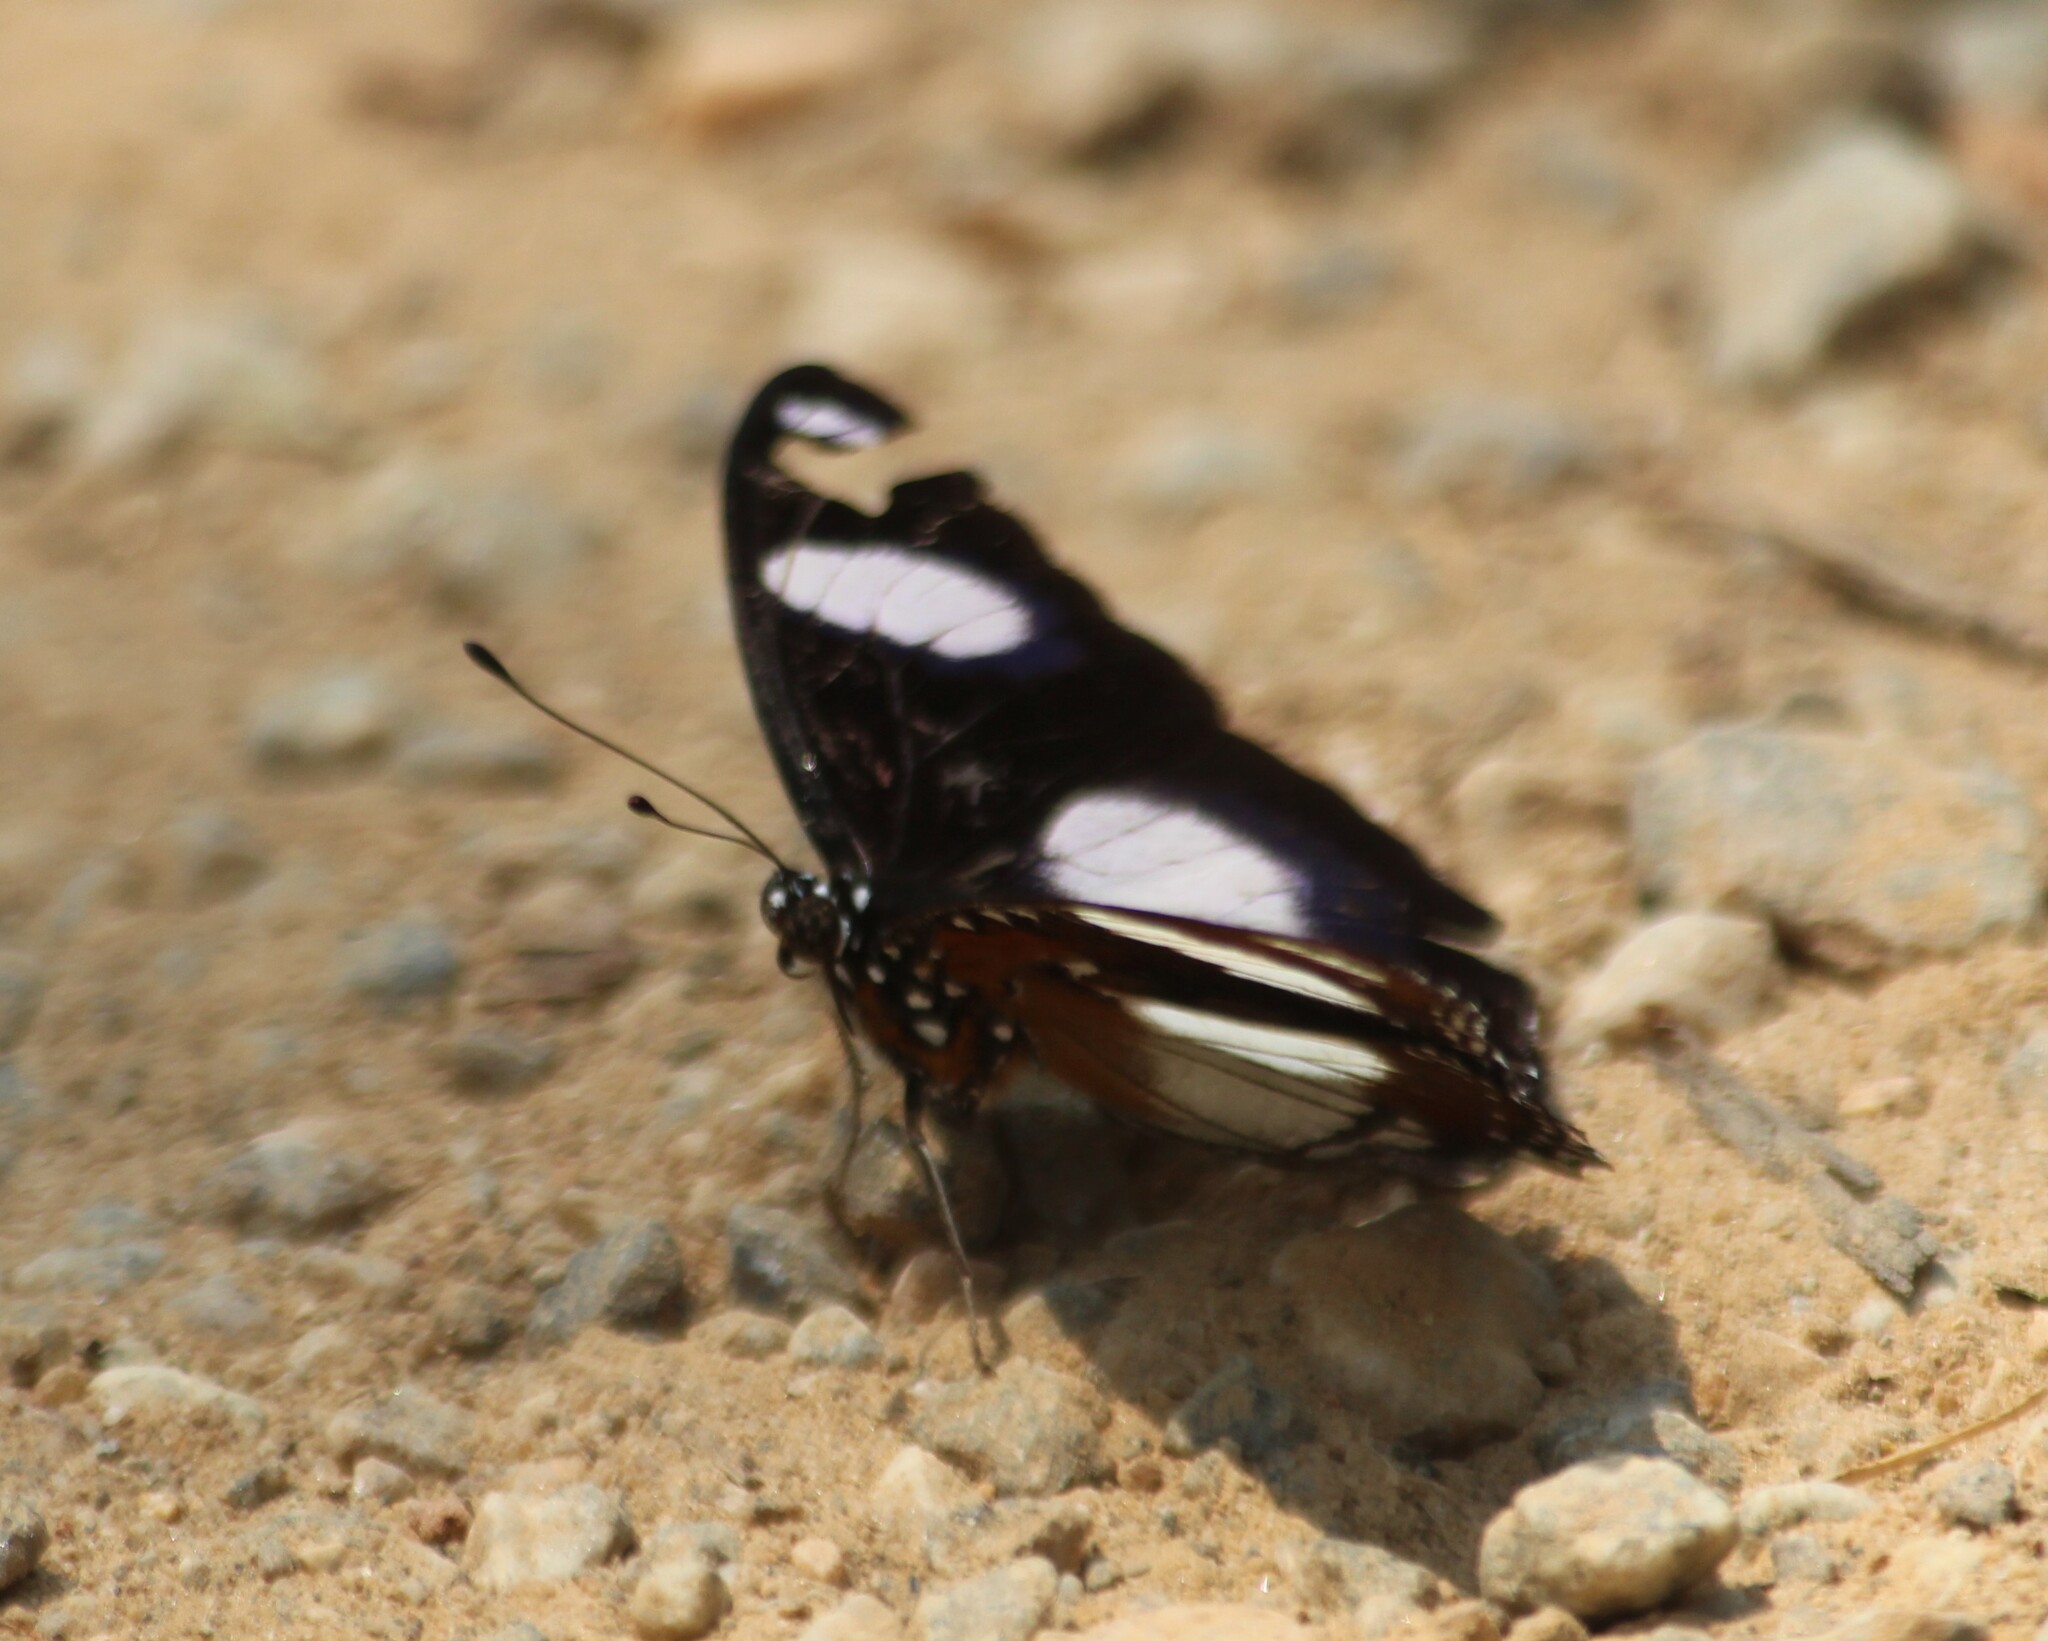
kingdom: Animalia
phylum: Arthropoda
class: Insecta
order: Lepidoptera
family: Nymphalidae
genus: Hypolimnas
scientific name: Hypolimnas misippus
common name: False plain tiger
